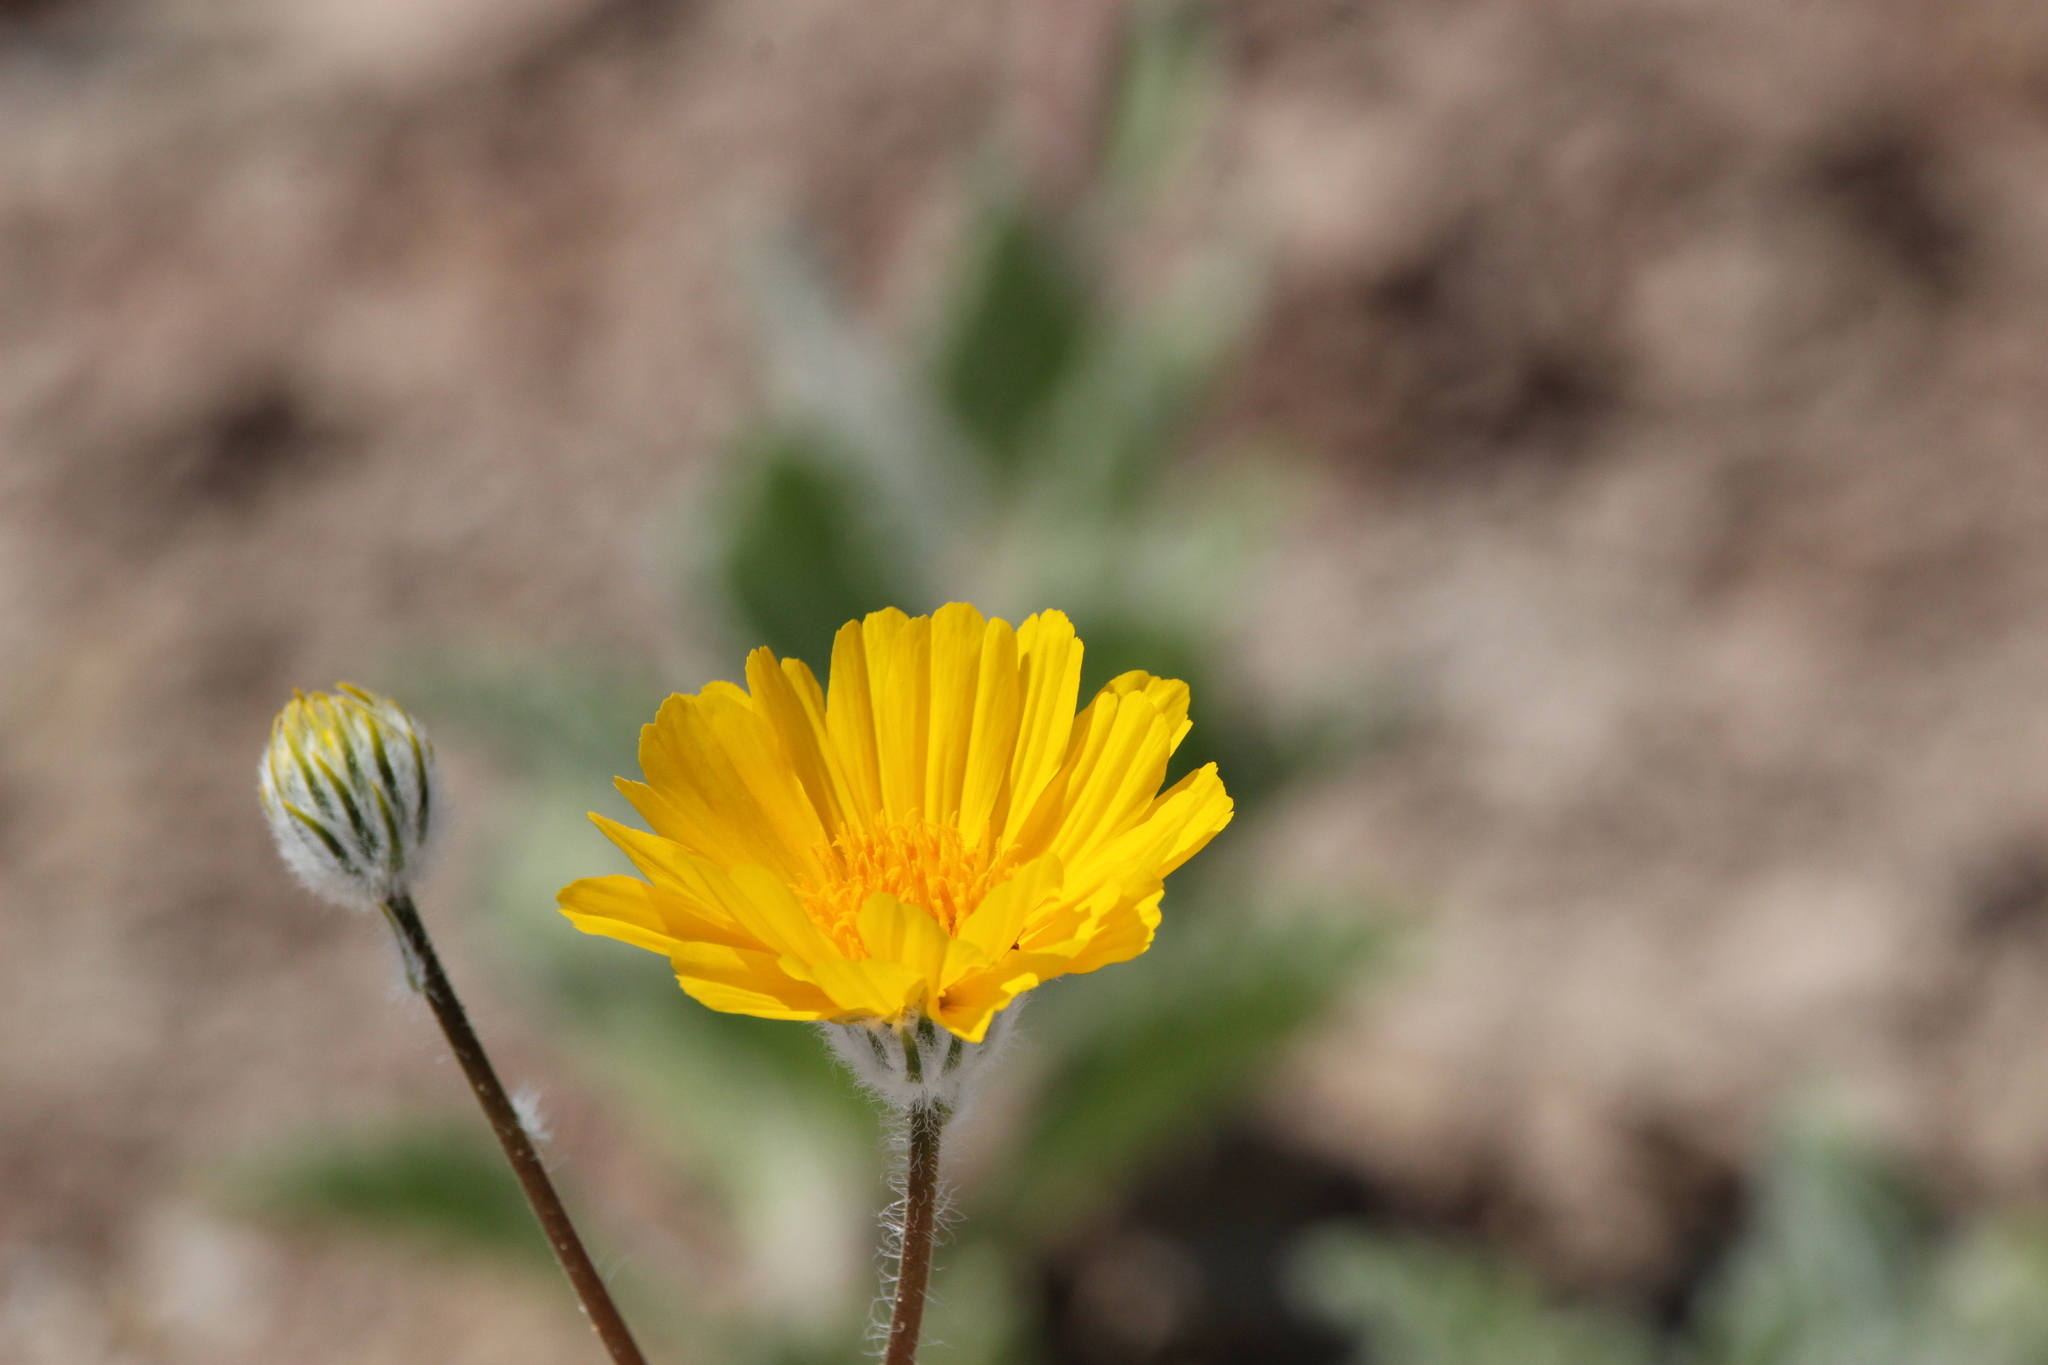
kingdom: Plantae
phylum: Tracheophyta
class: Magnoliopsida
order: Asterales
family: Asteraceae
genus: Geraea
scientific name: Geraea canescens
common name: Desert-gold
